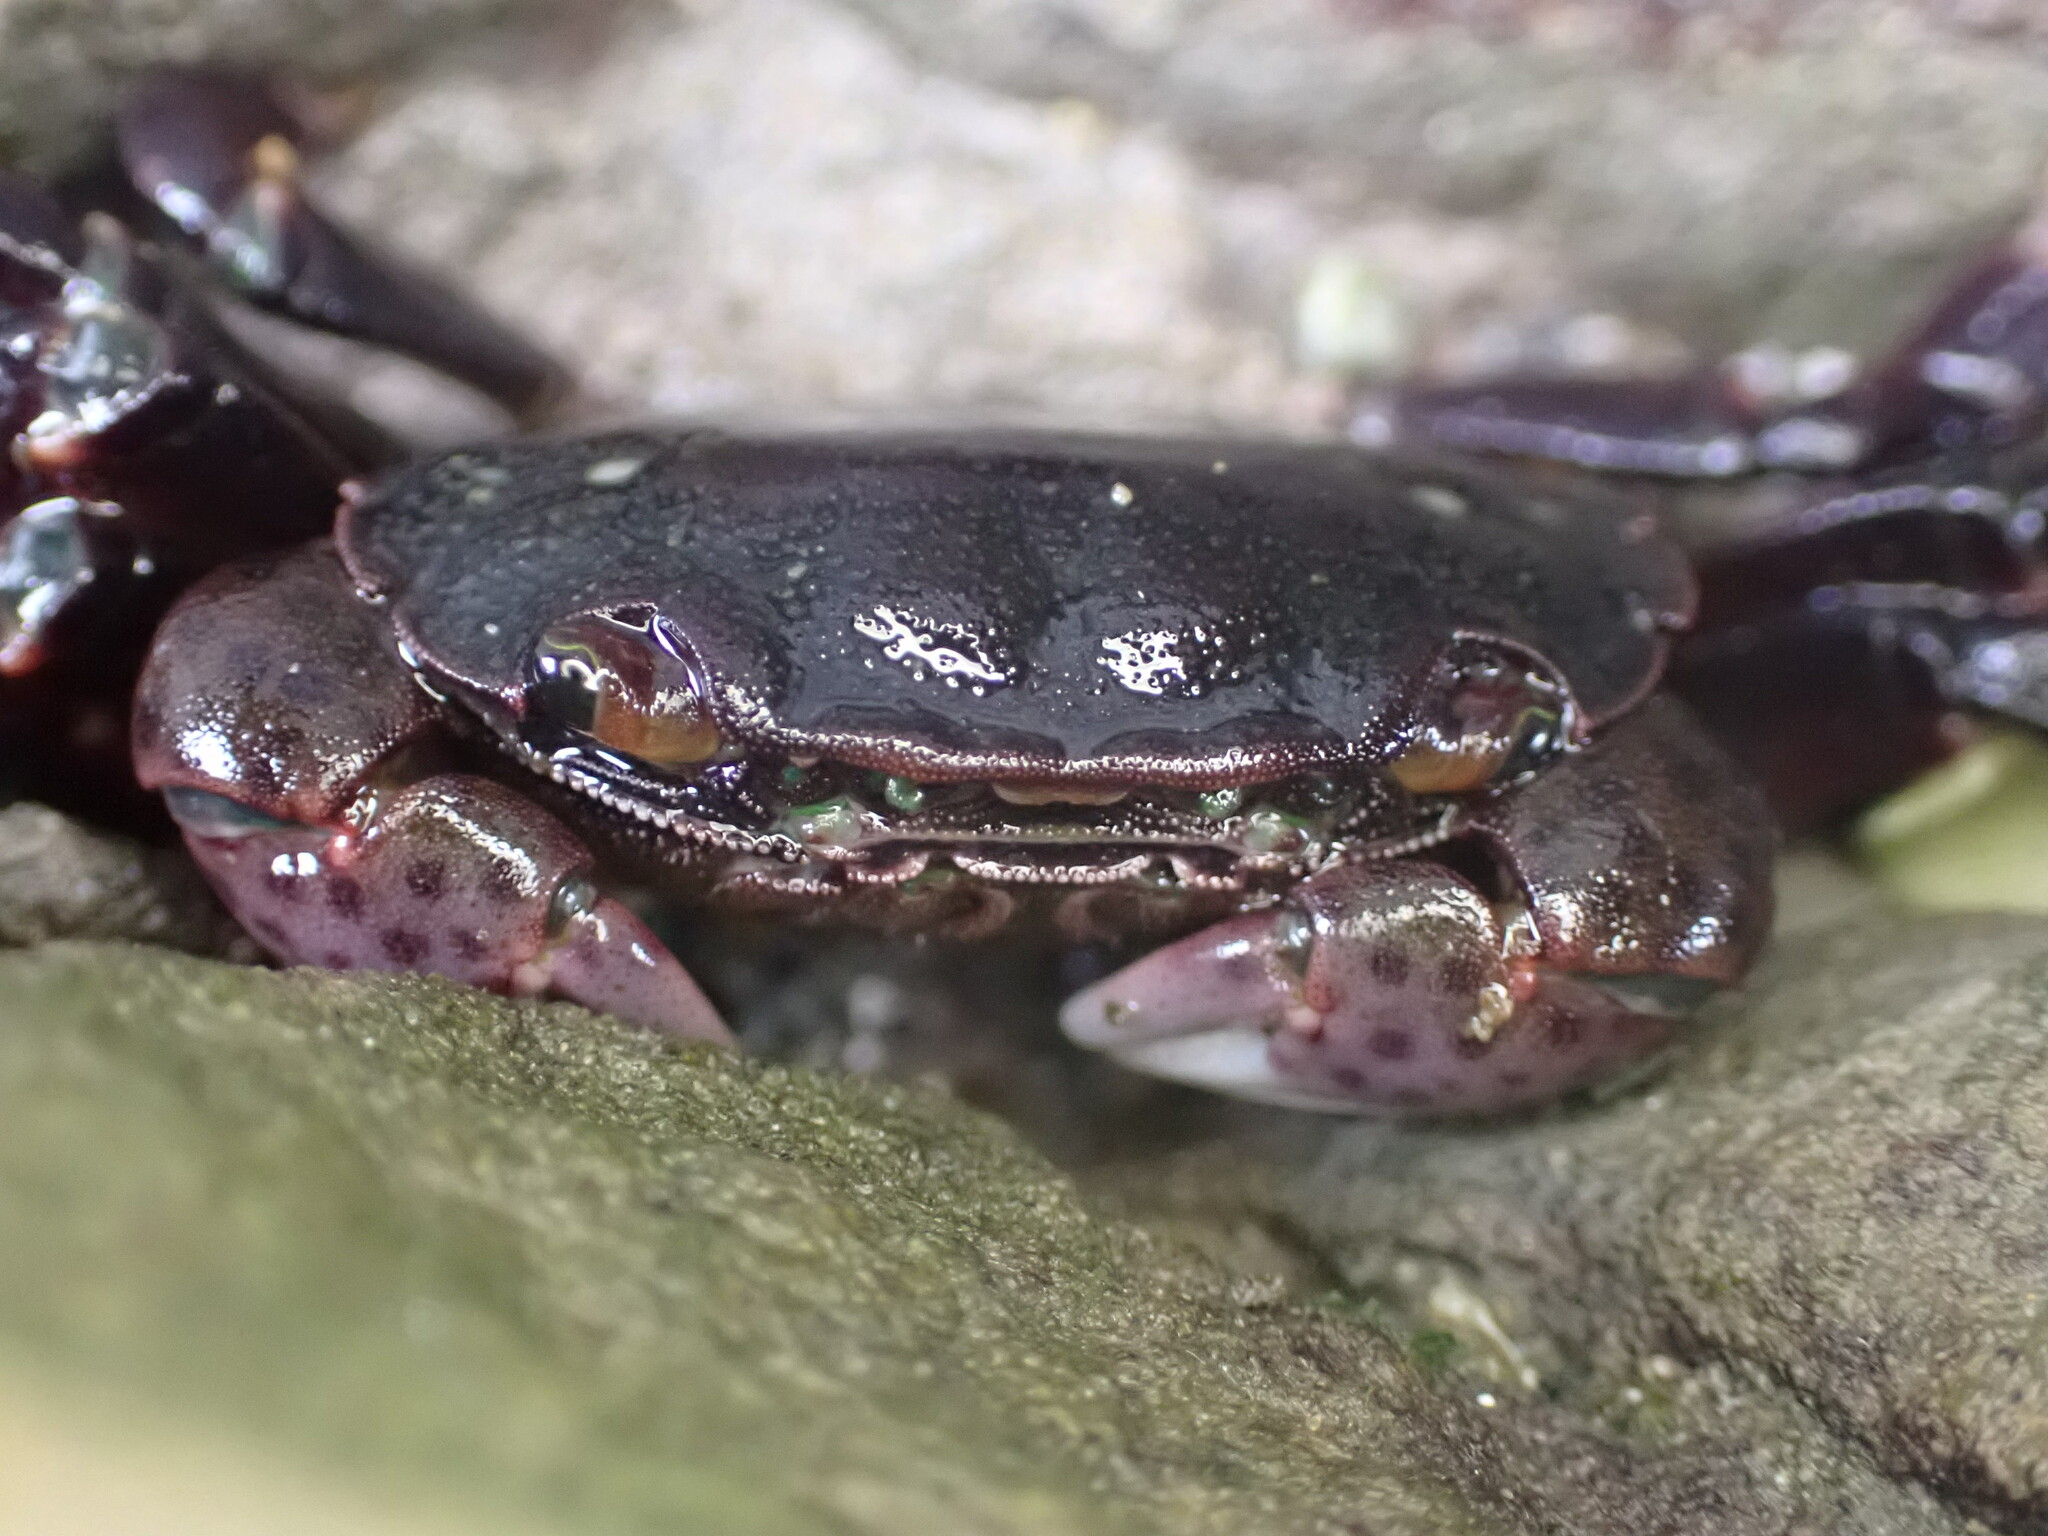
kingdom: Animalia
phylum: Arthropoda
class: Malacostraca
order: Decapoda
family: Varunidae
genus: Hemigrapsus
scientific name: Hemigrapsus nudus
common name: Purple shore crab
